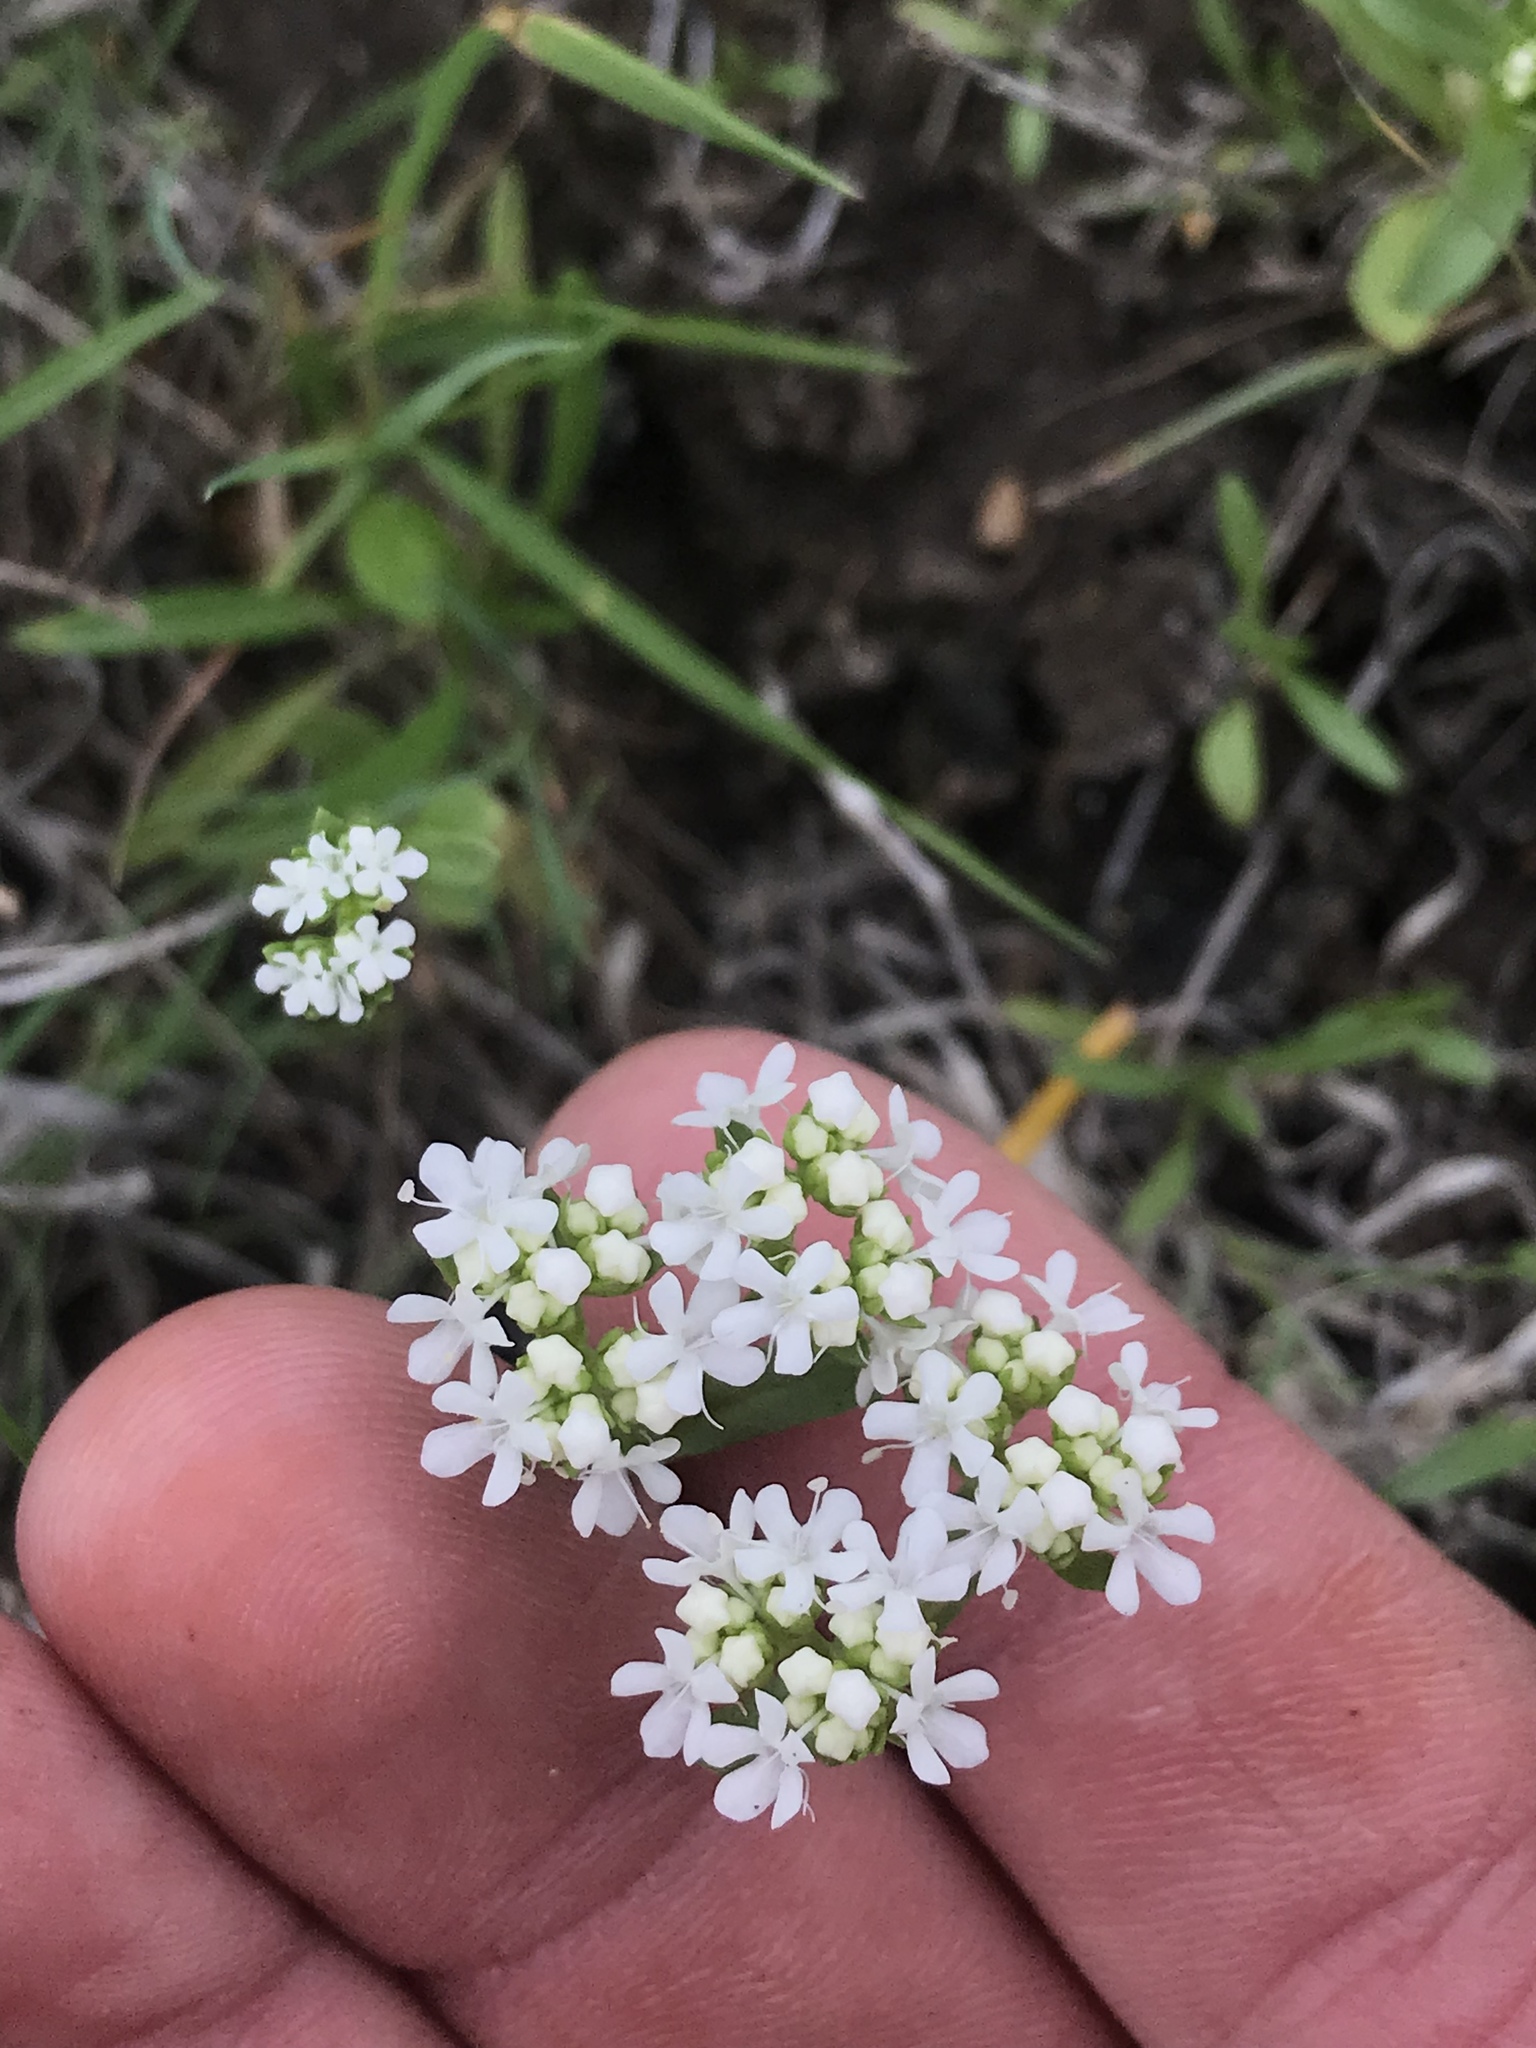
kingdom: Plantae
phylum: Tracheophyta
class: Magnoliopsida
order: Dipsacales
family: Caprifoliaceae
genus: Valerianella
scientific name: Valerianella amarella
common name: Hariy cornsalad
